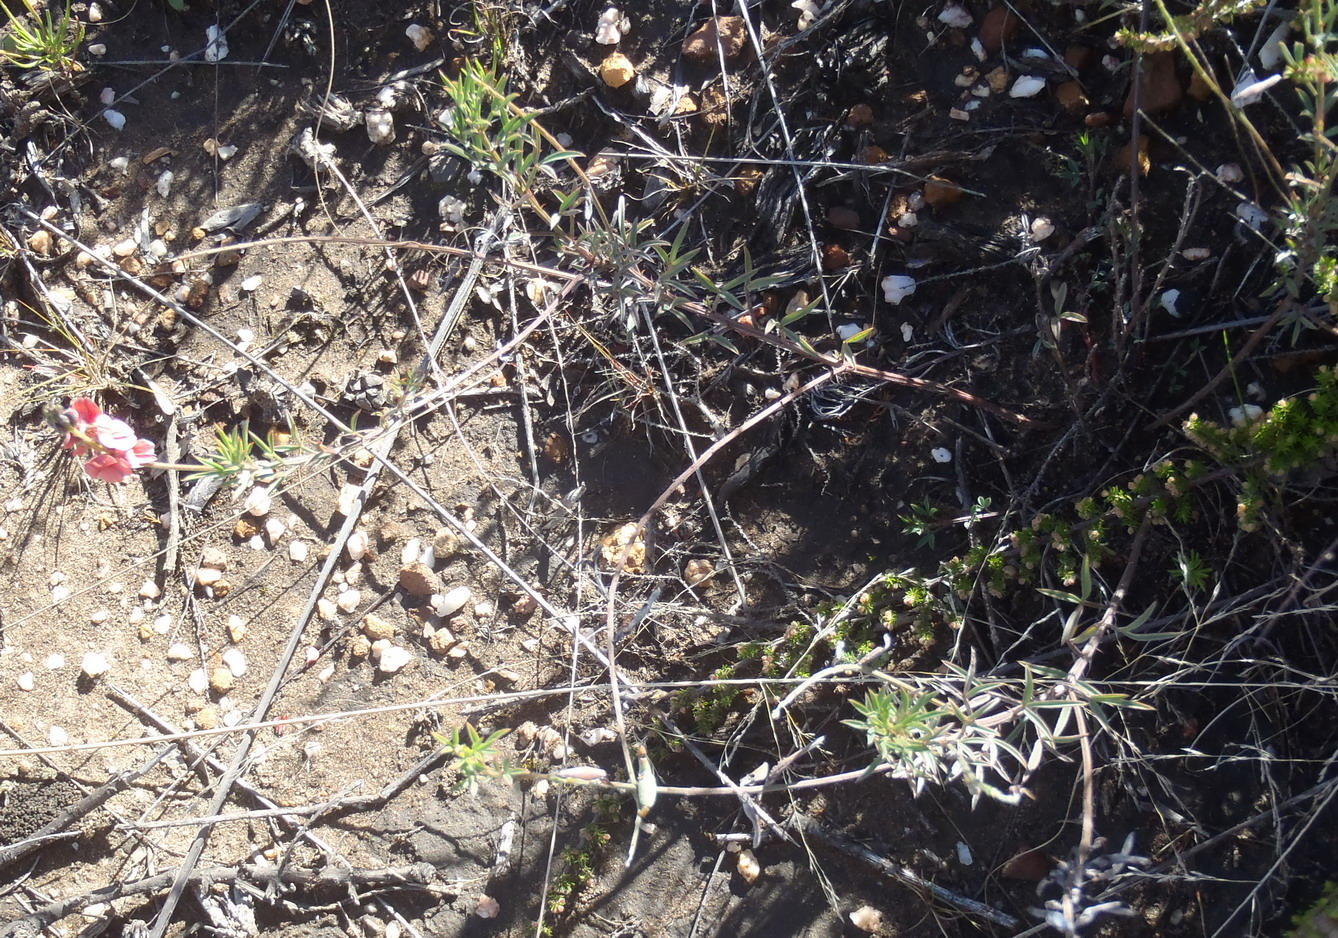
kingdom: Plantae
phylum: Tracheophyta
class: Magnoliopsida
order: Fabales
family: Fabaceae
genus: Indigofera
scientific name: Indigofera heterophylla
